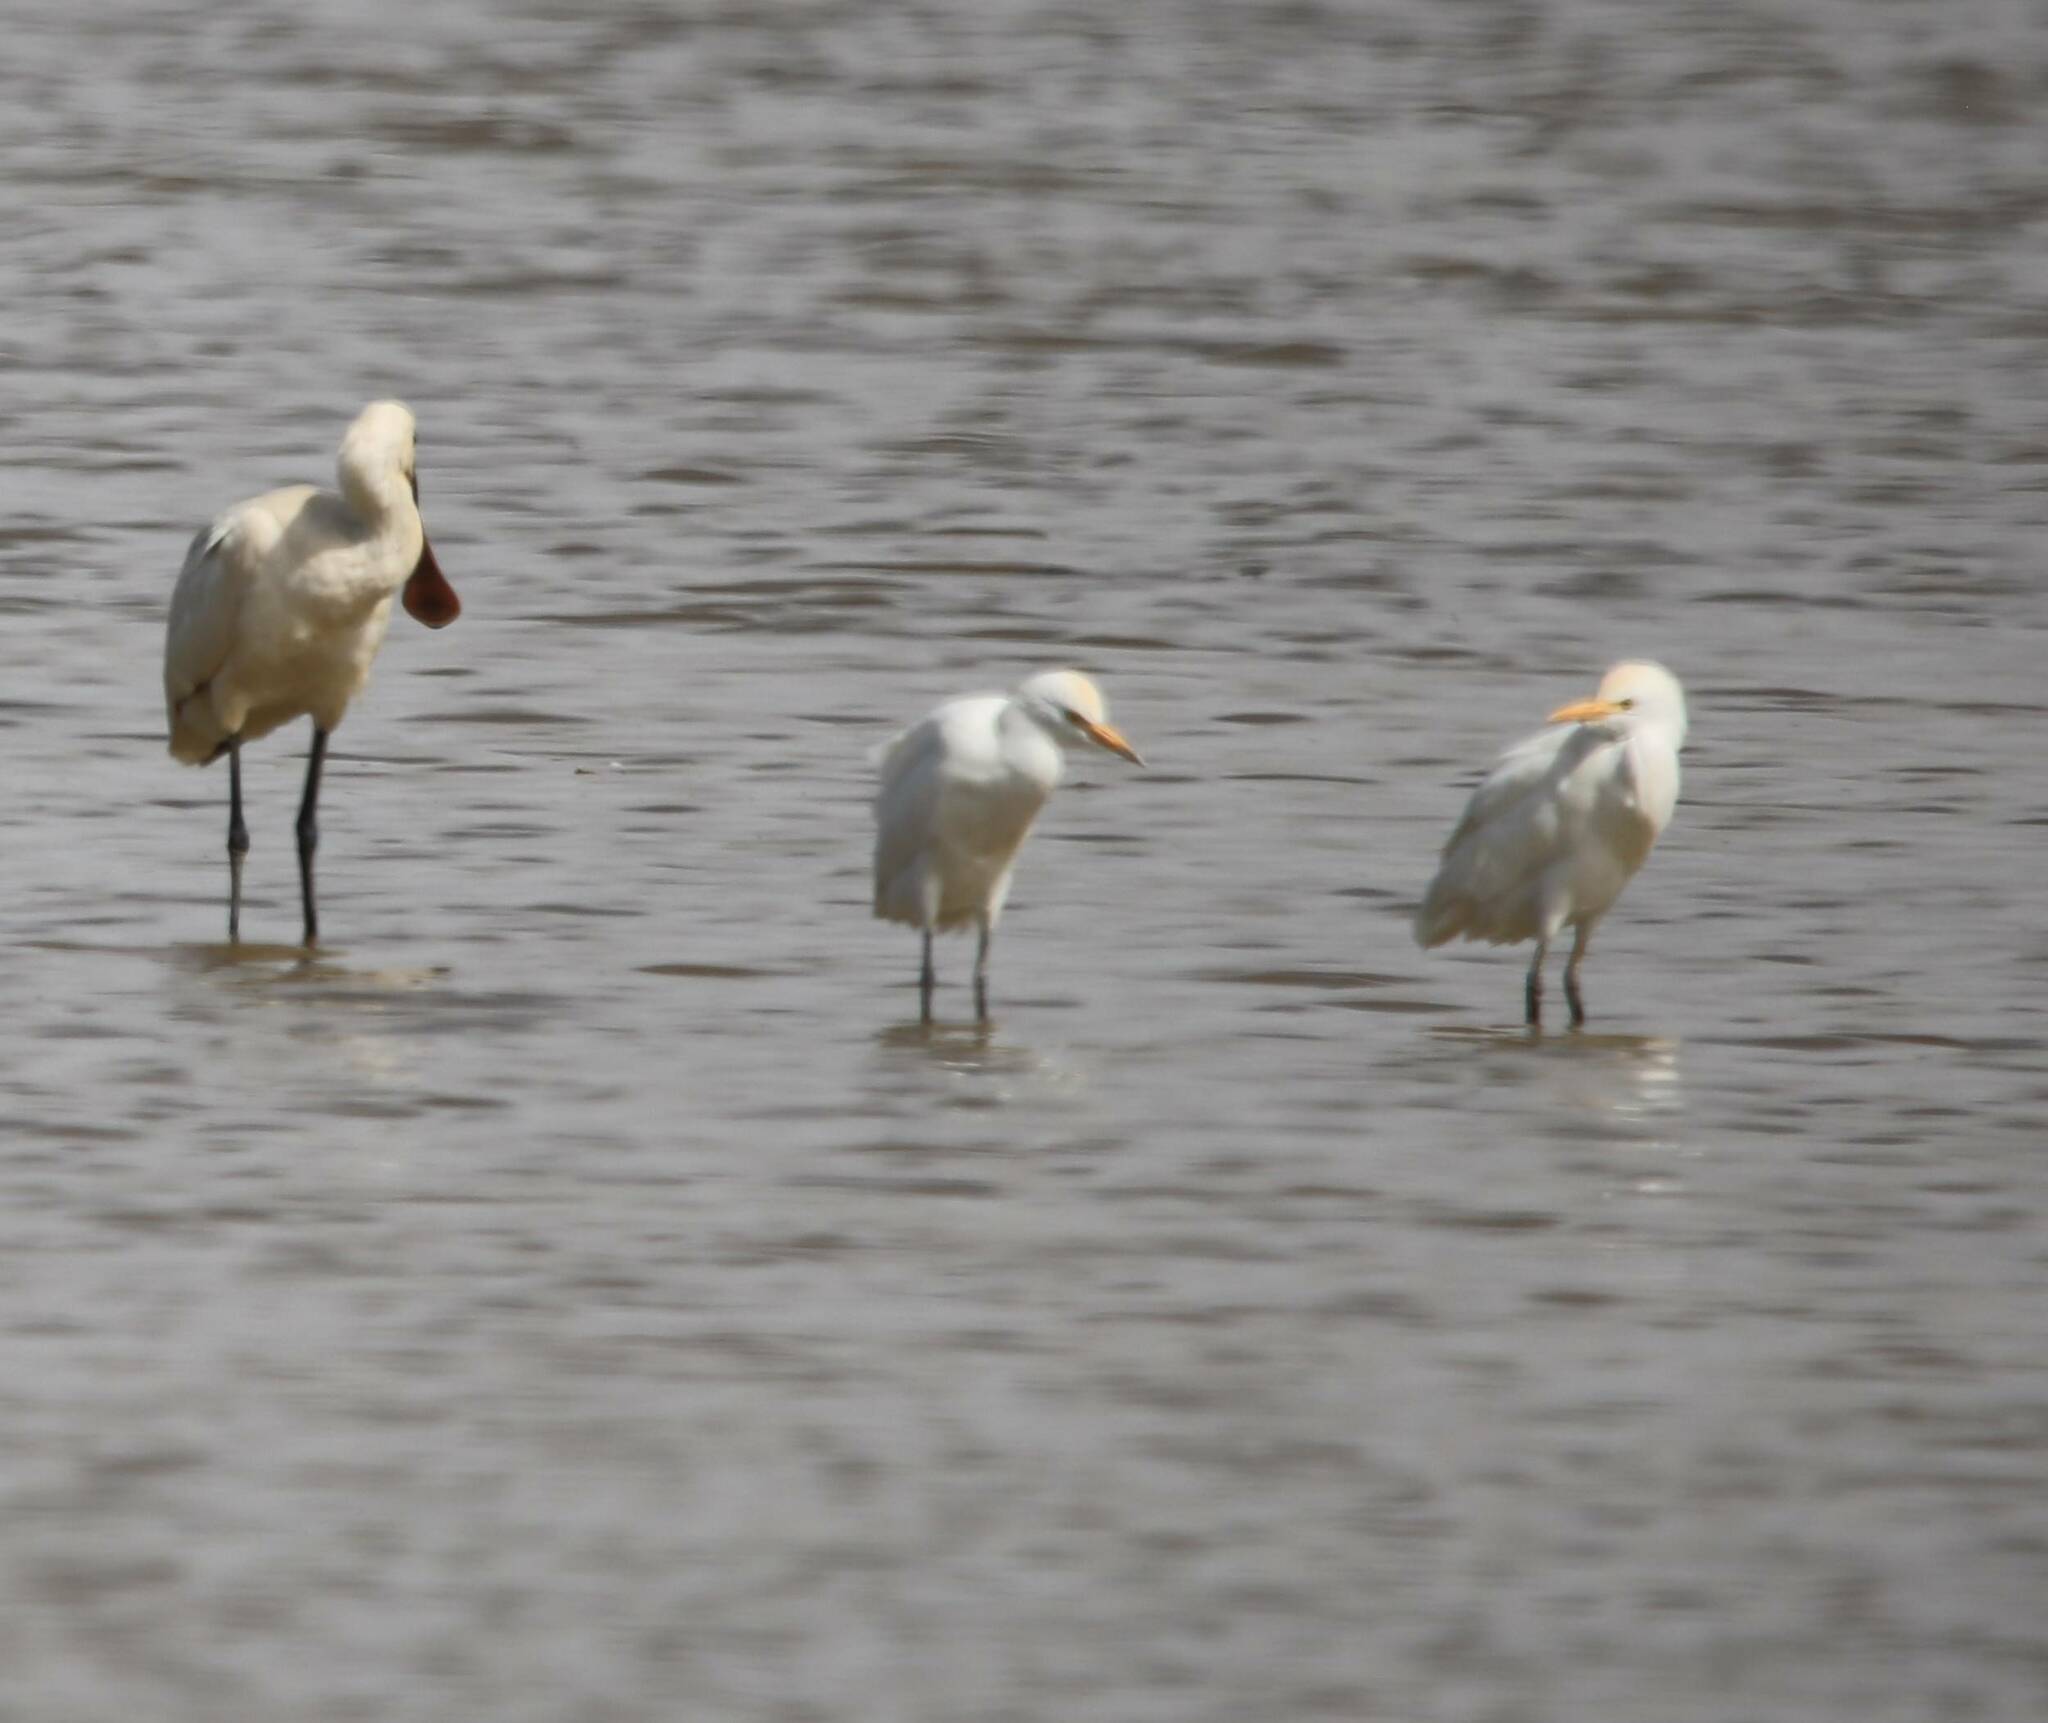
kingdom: Animalia
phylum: Chordata
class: Aves
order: Pelecaniformes
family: Ardeidae
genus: Bubulcus
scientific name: Bubulcus ibis
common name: Cattle egret
